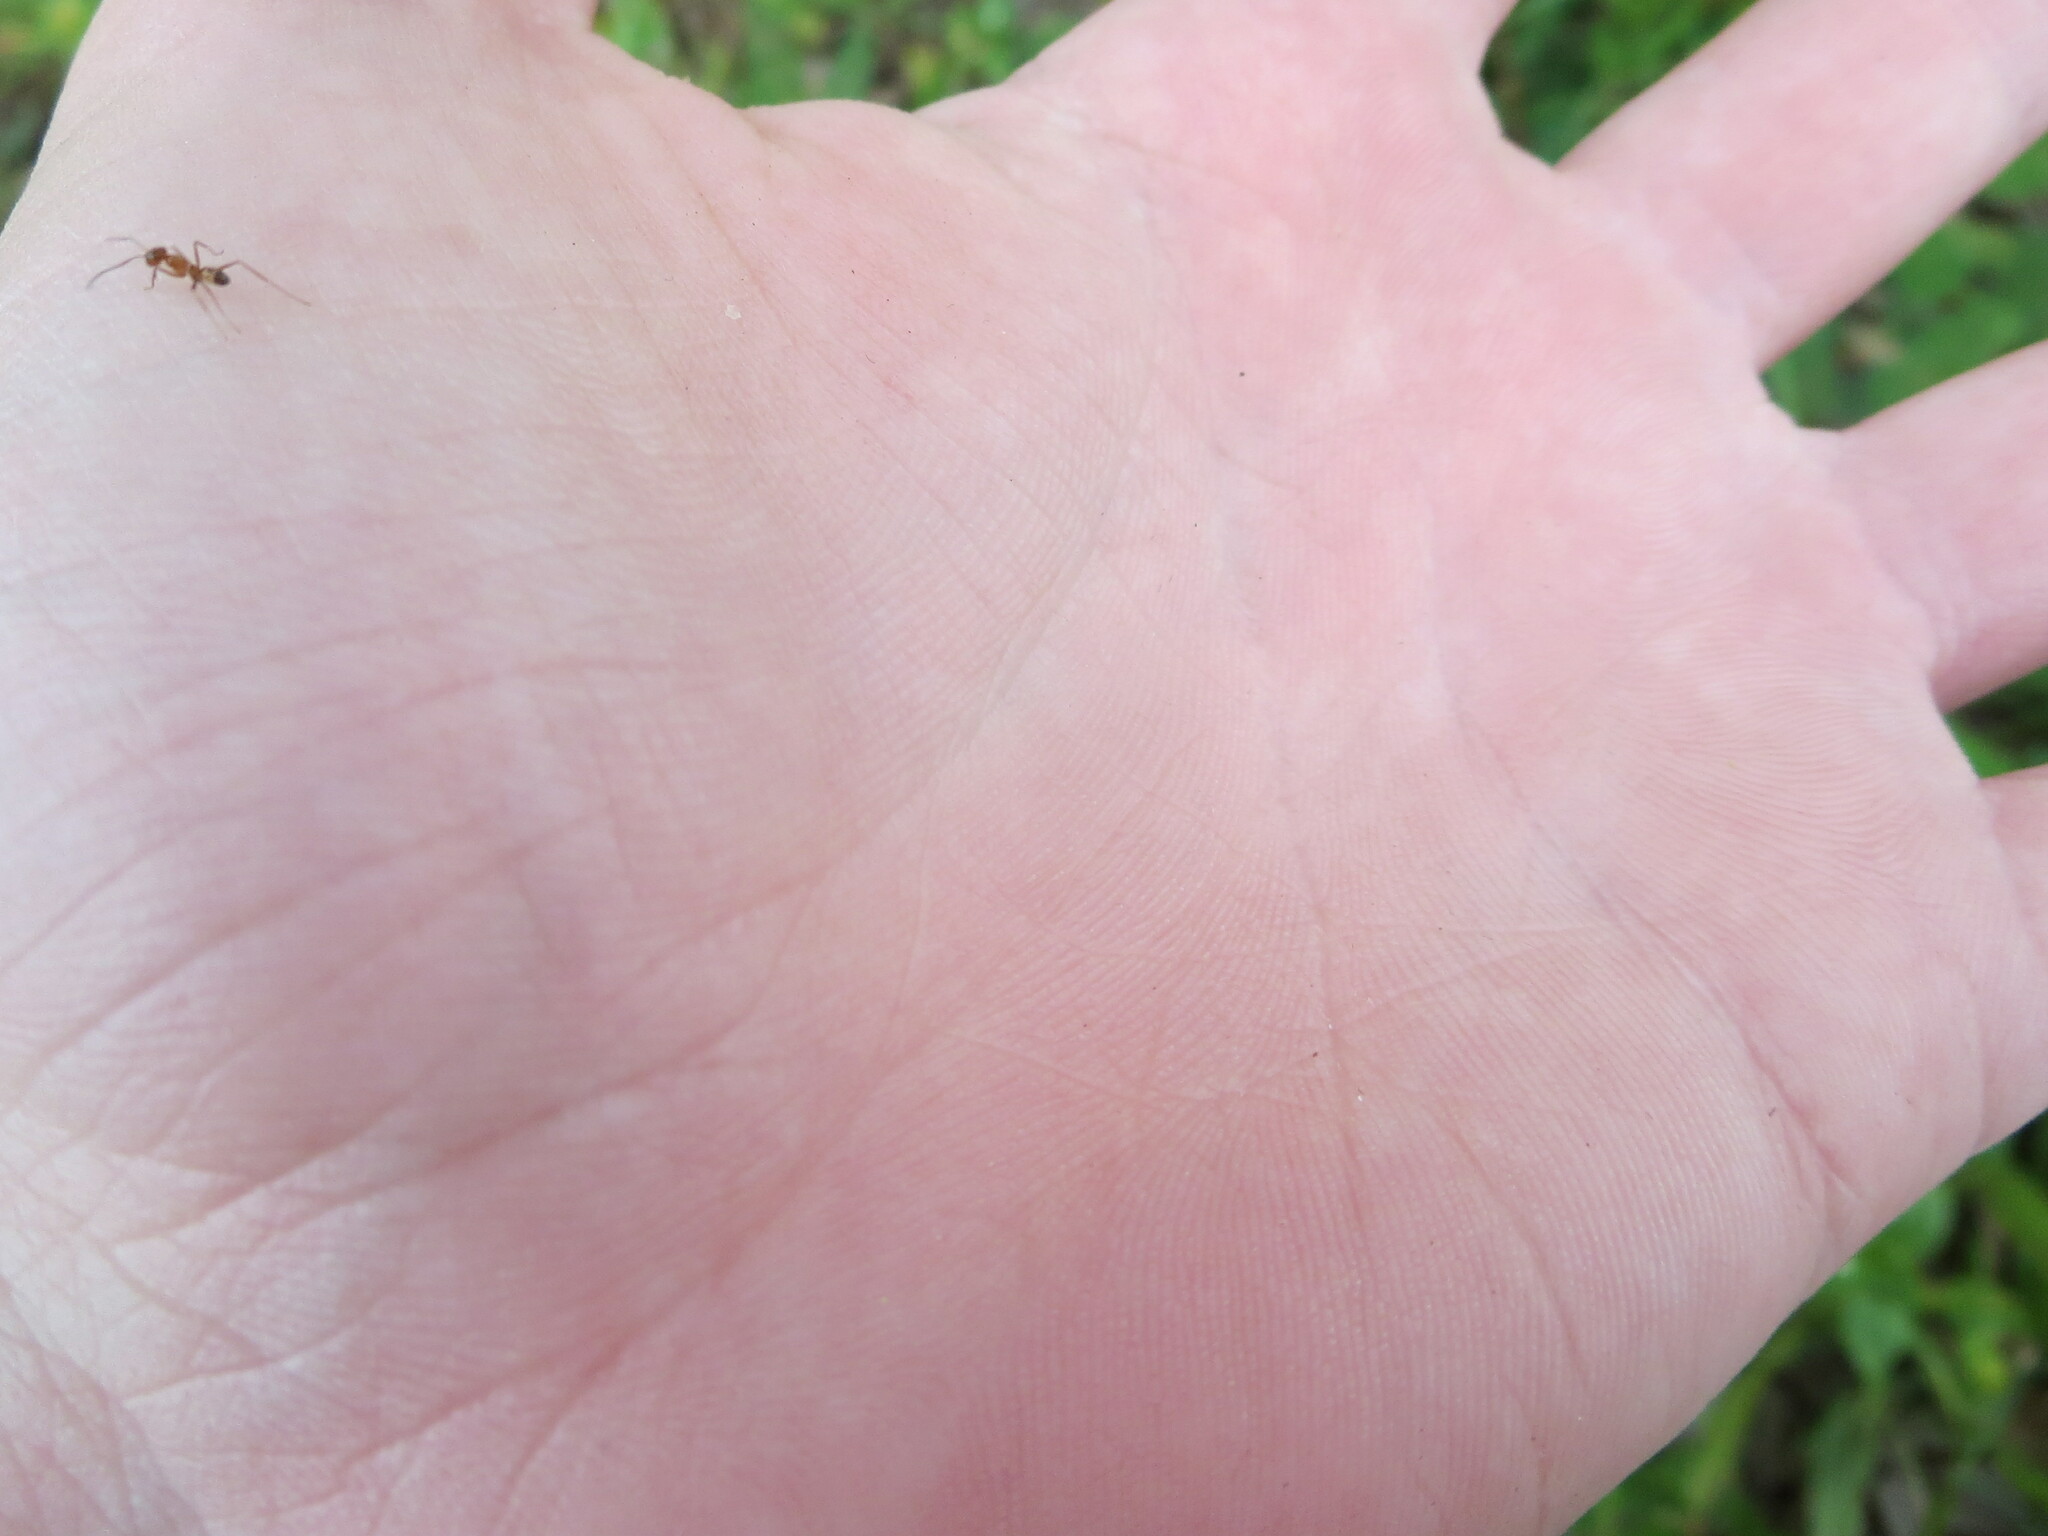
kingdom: Animalia
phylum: Arthropoda
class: Insecta
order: Hymenoptera
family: Formicidae
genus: Dorymyrmex
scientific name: Dorymyrmex bureni
